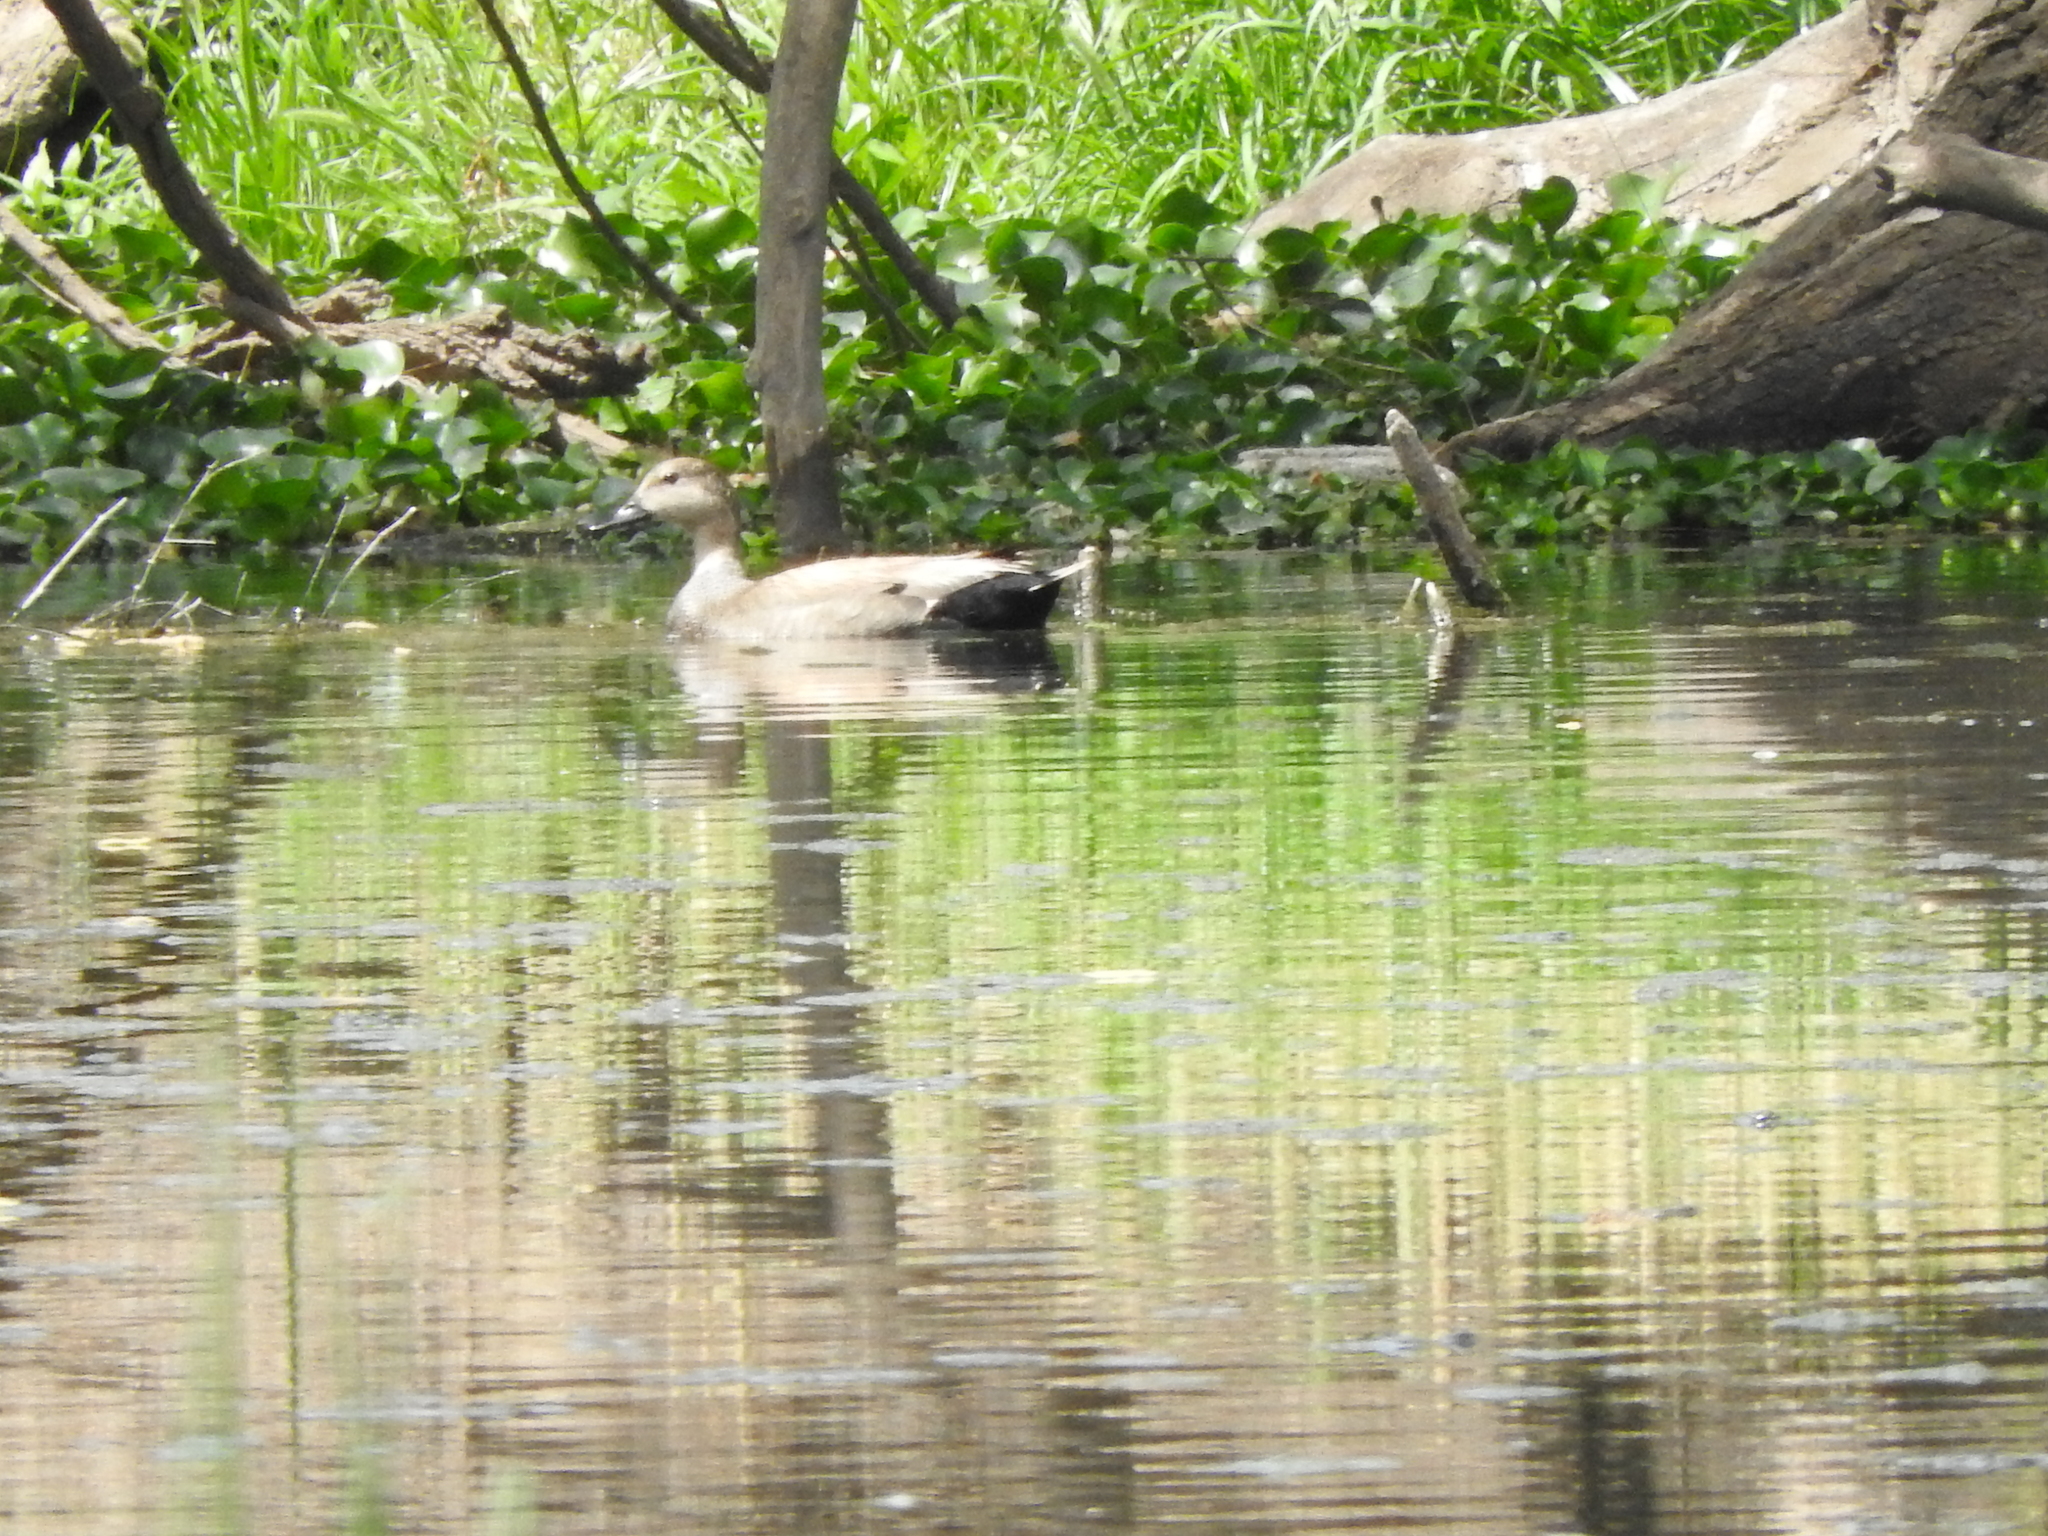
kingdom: Animalia
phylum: Chordata
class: Aves
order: Anseriformes
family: Anatidae
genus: Mareca
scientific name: Mareca strepera
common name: Gadwall
